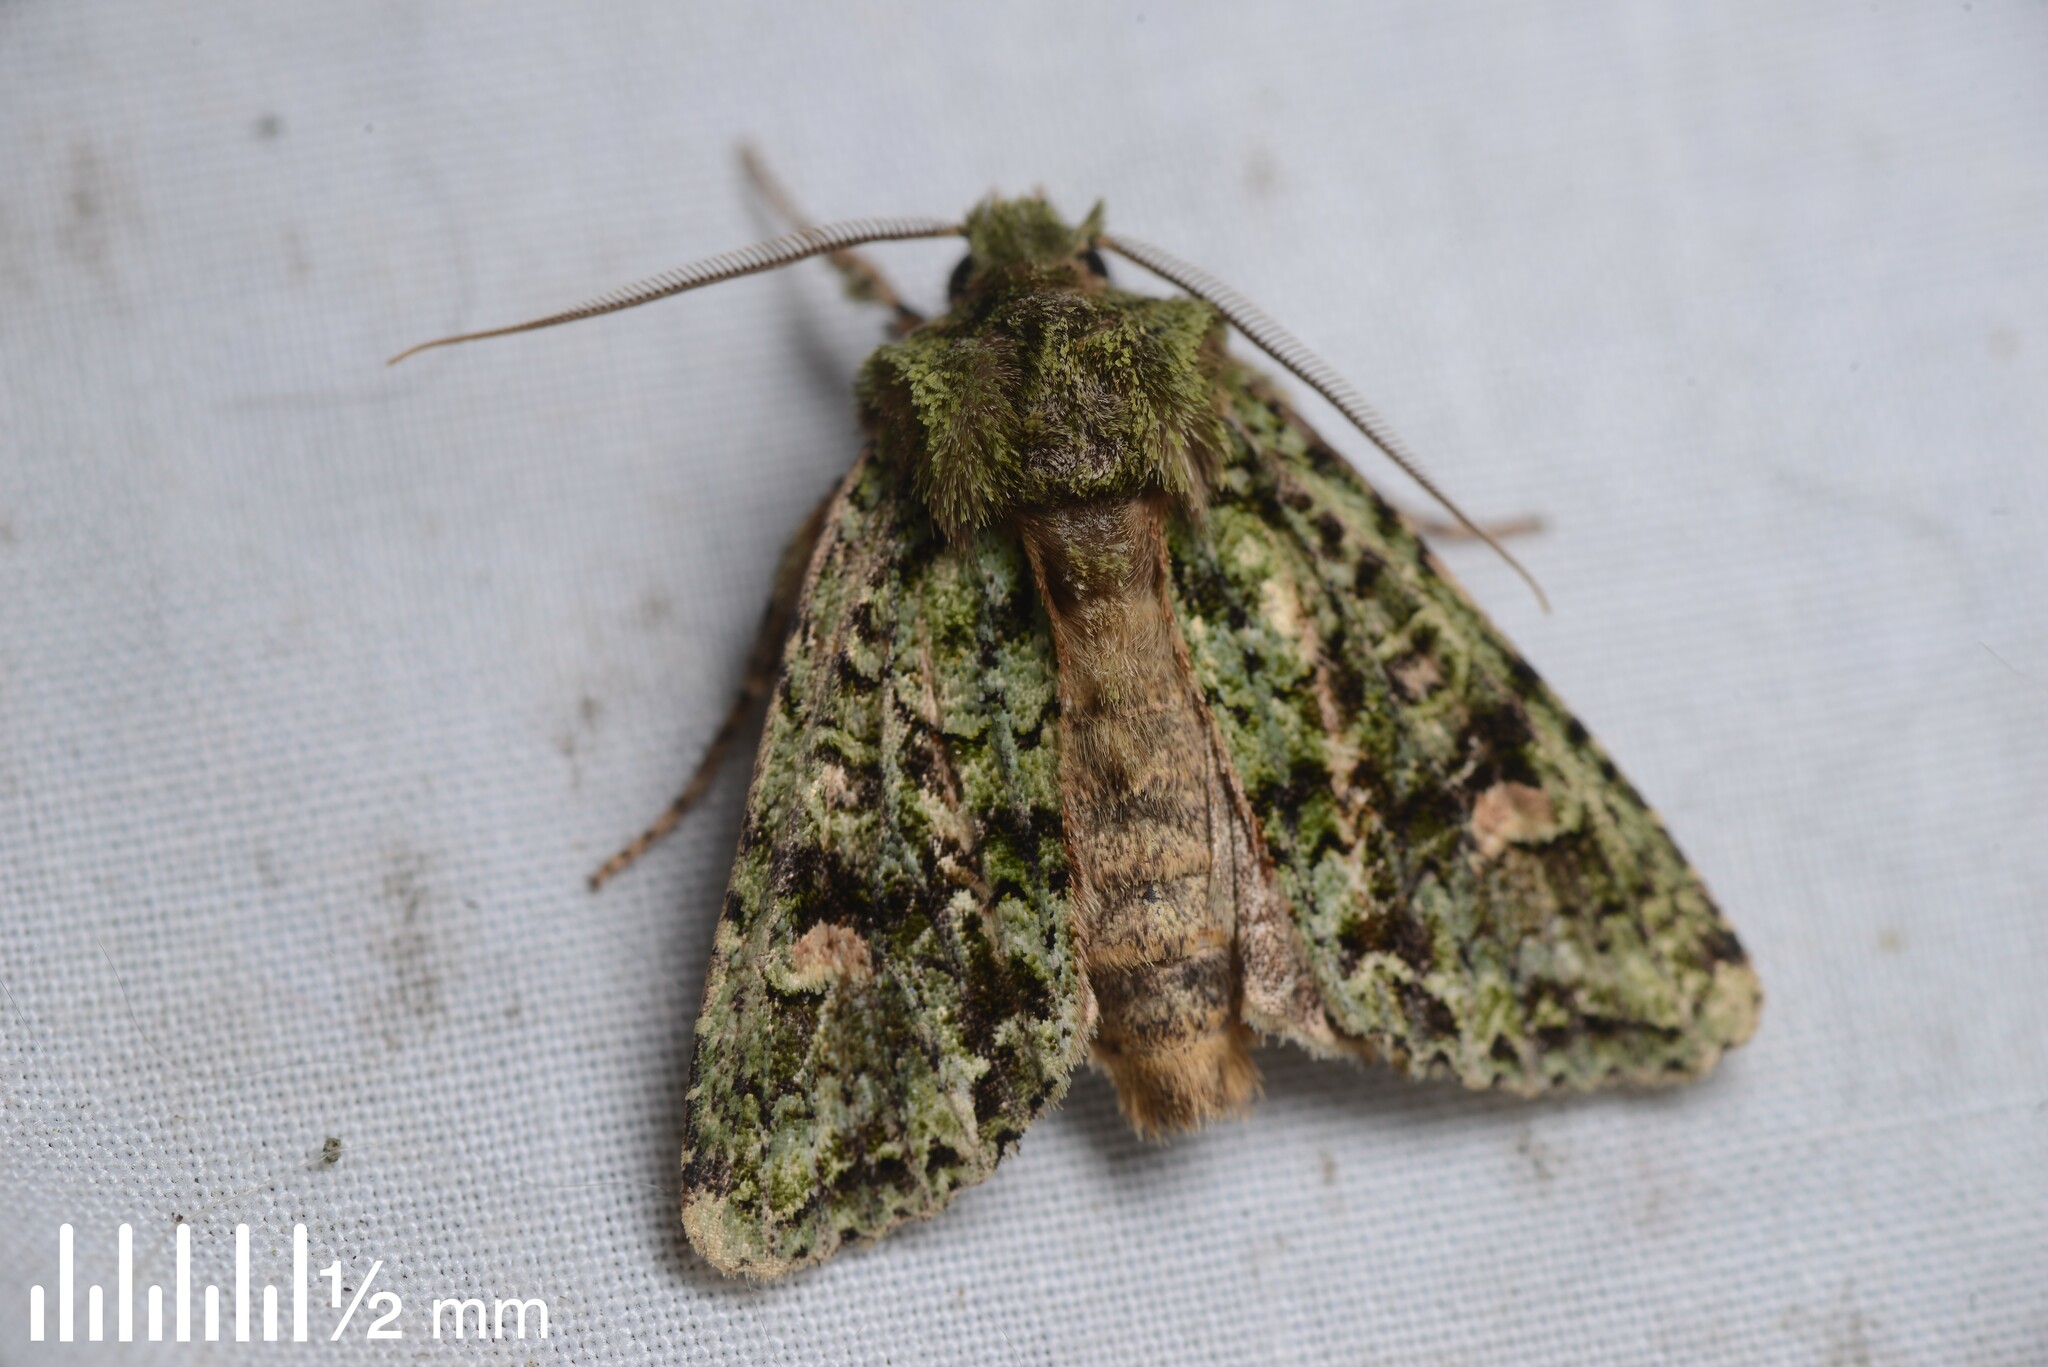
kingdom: Animalia
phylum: Arthropoda
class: Insecta
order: Lepidoptera
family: Noctuidae
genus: Ichneutica
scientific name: Ichneutica
